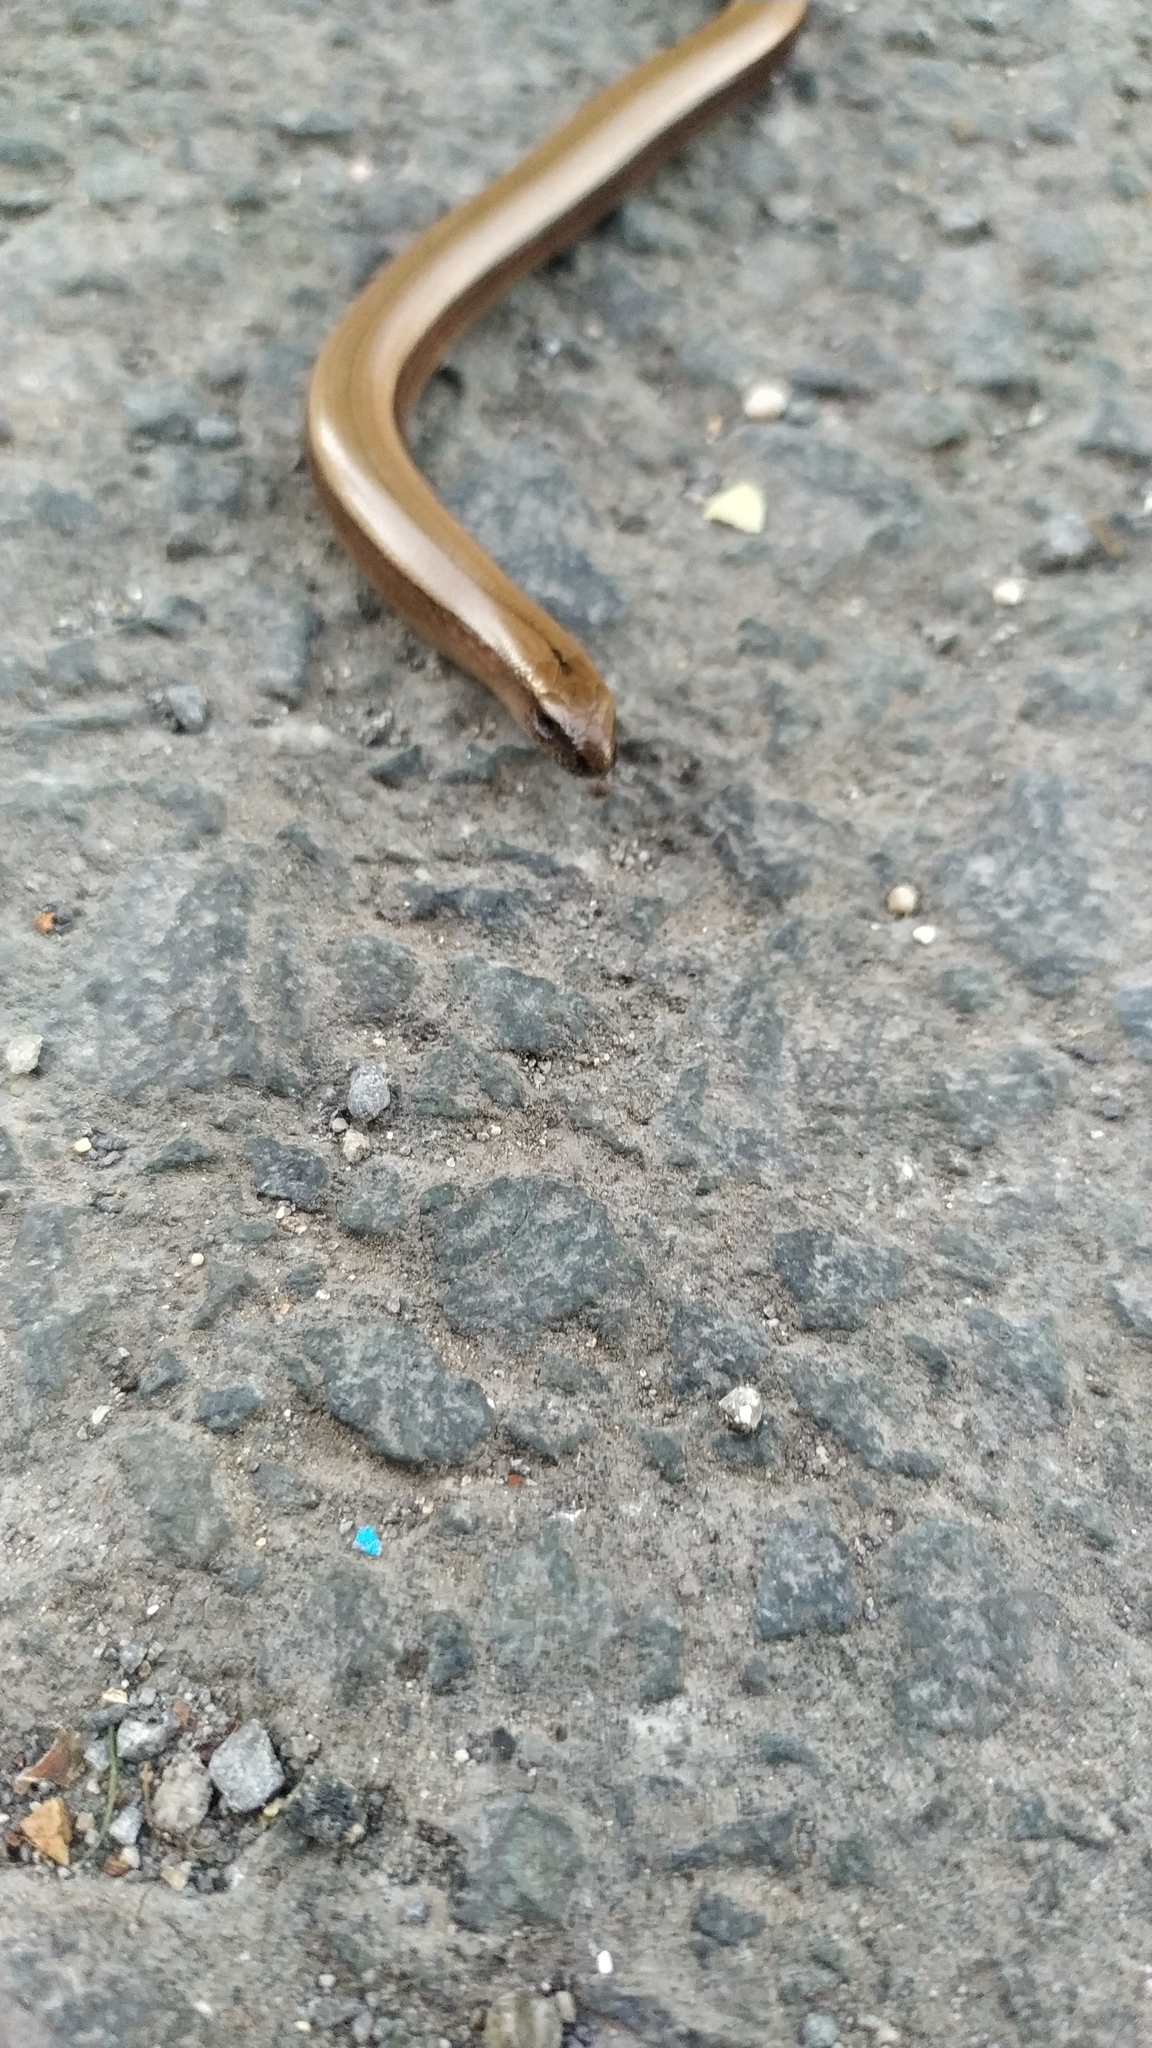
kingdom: Animalia
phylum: Chordata
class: Squamata
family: Anguidae
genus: Anguis
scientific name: Anguis fragilis
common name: Slow worm
